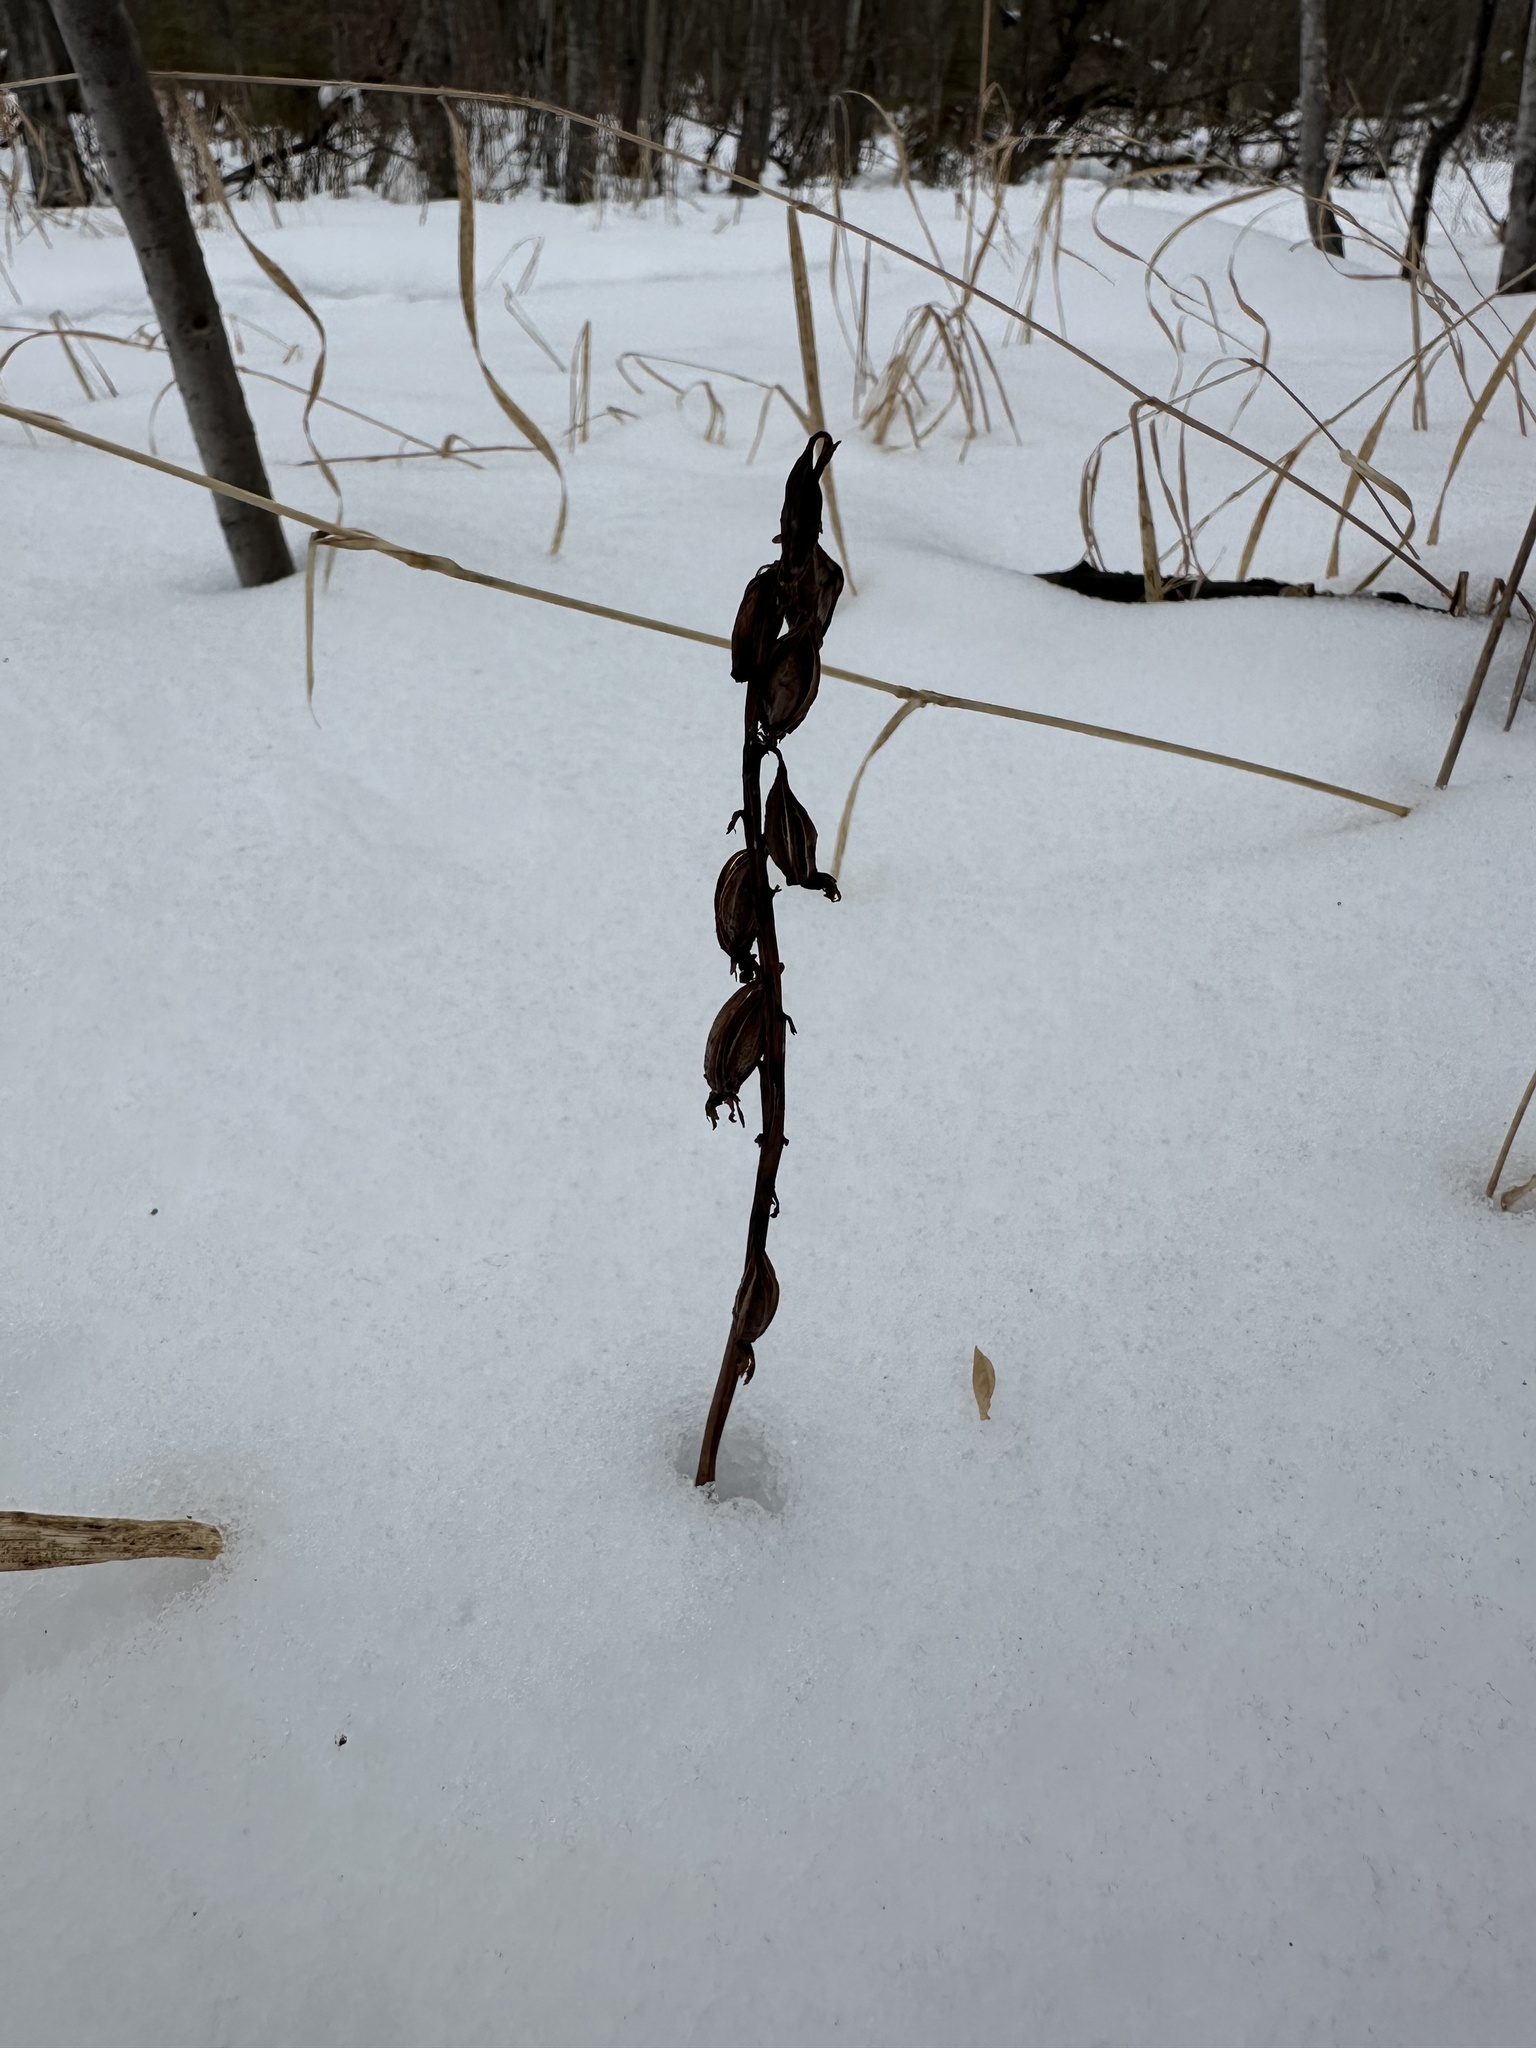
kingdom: Plantae
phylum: Tracheophyta
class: Liliopsida
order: Asparagales
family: Orchidaceae
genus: Corallorhiza
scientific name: Corallorhiza maculata
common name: Spotted coralroot
